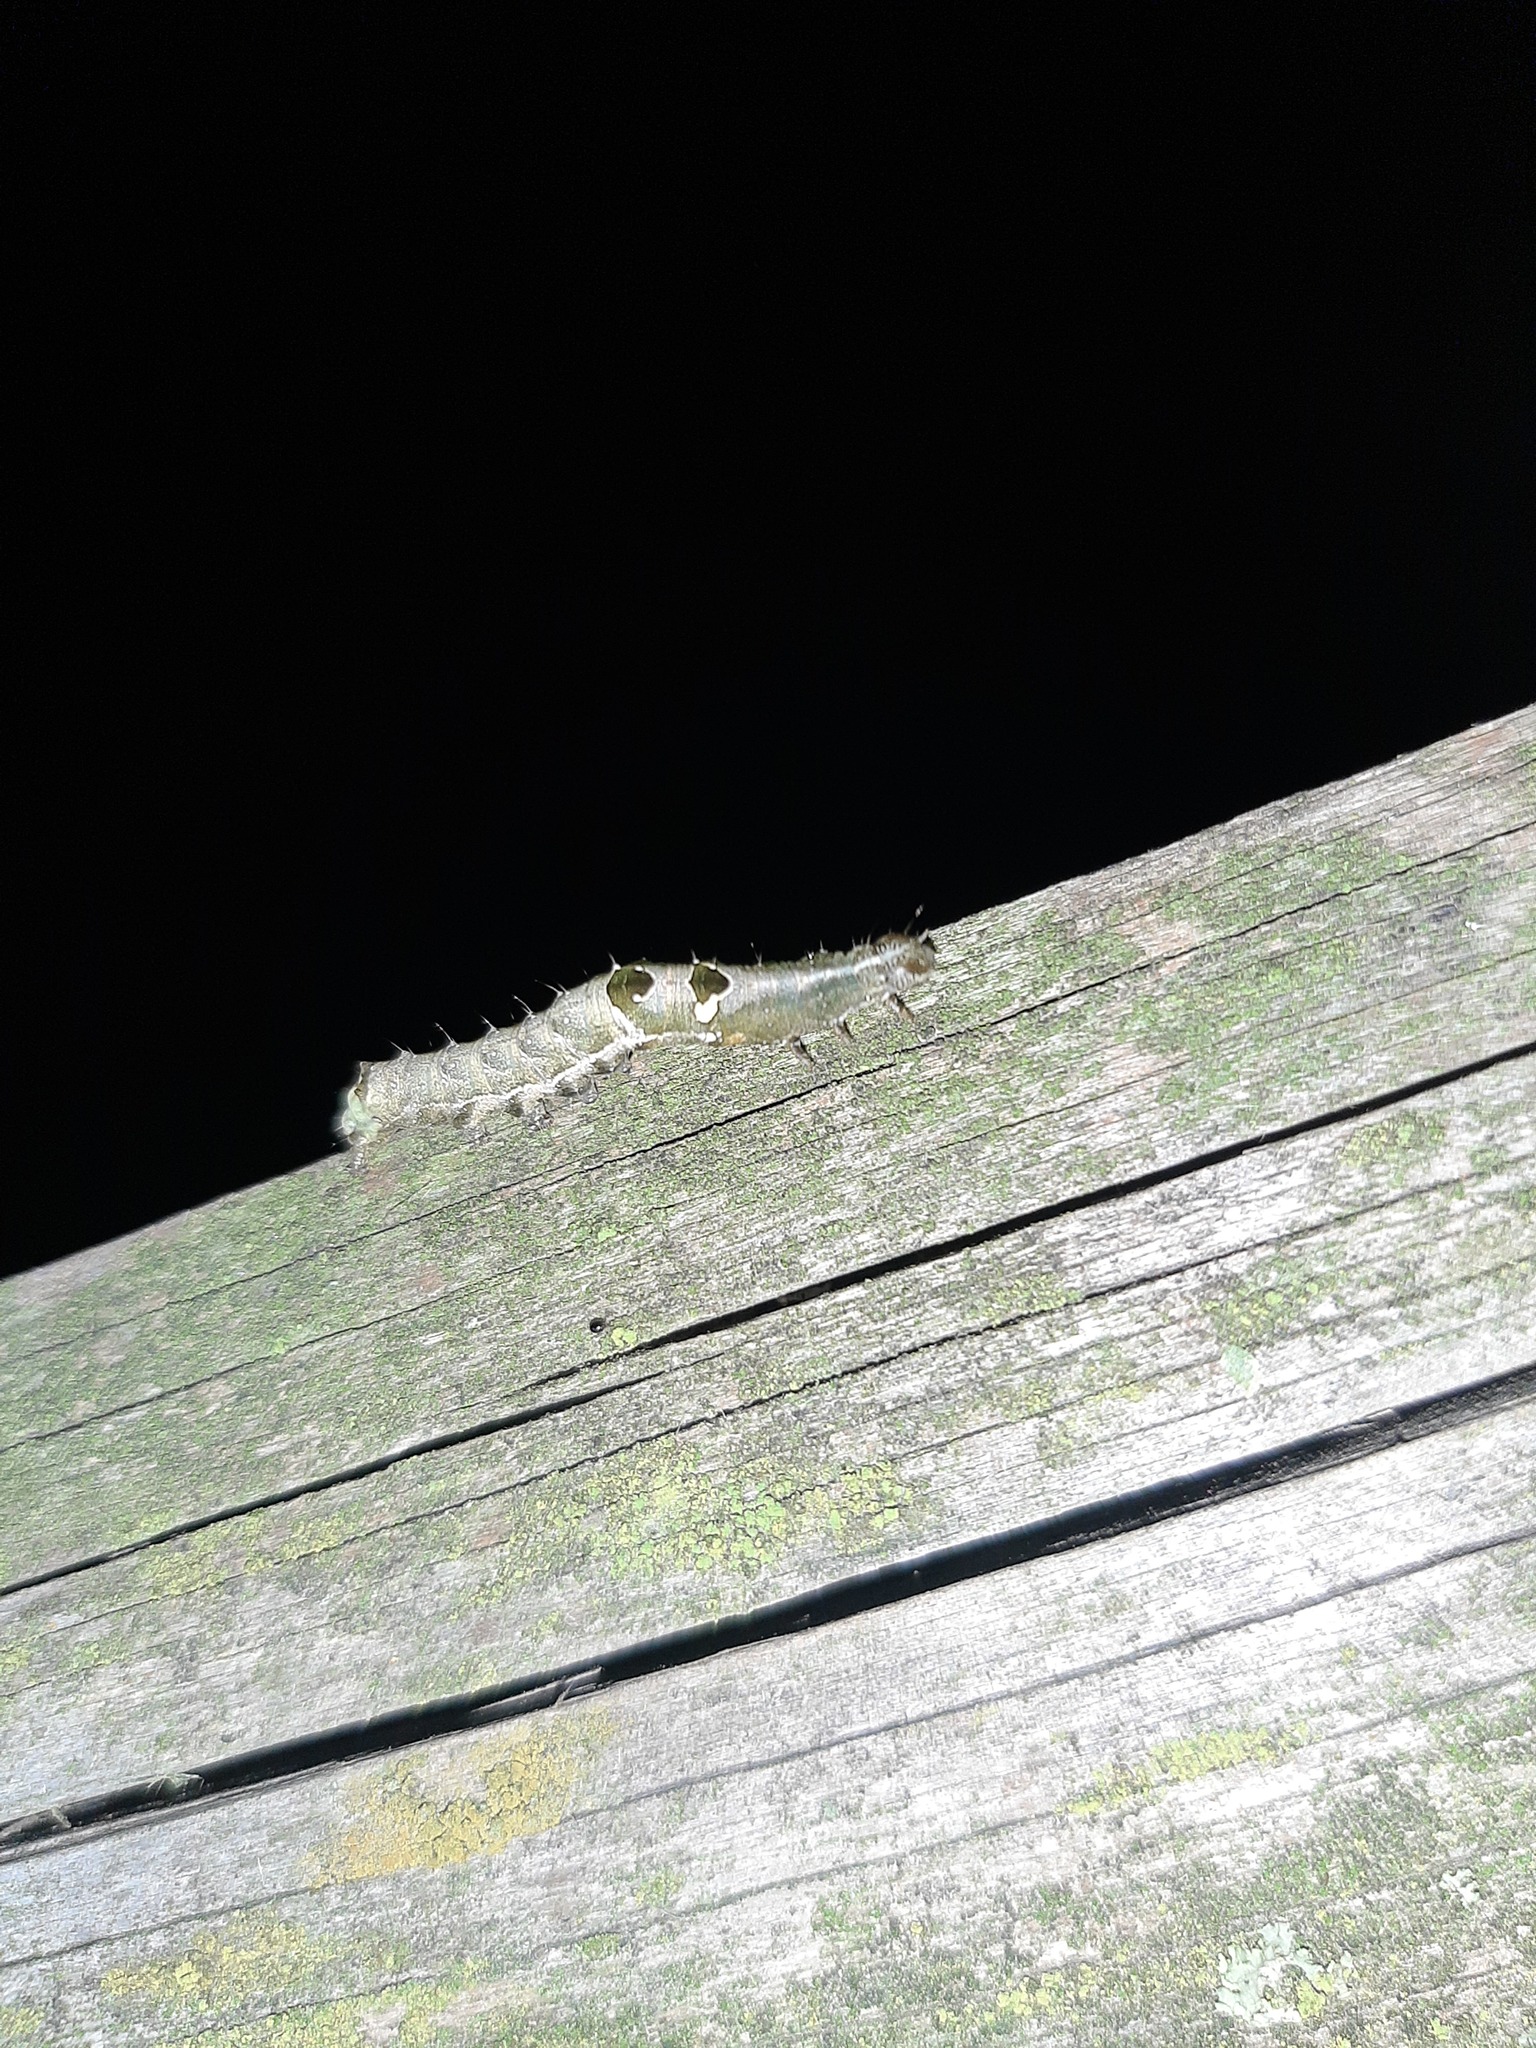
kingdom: Animalia
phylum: Arthropoda
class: Insecta
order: Lepidoptera
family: Noctuidae
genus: Abrostola
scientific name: Abrostola triplasia
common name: Dark spectacle
